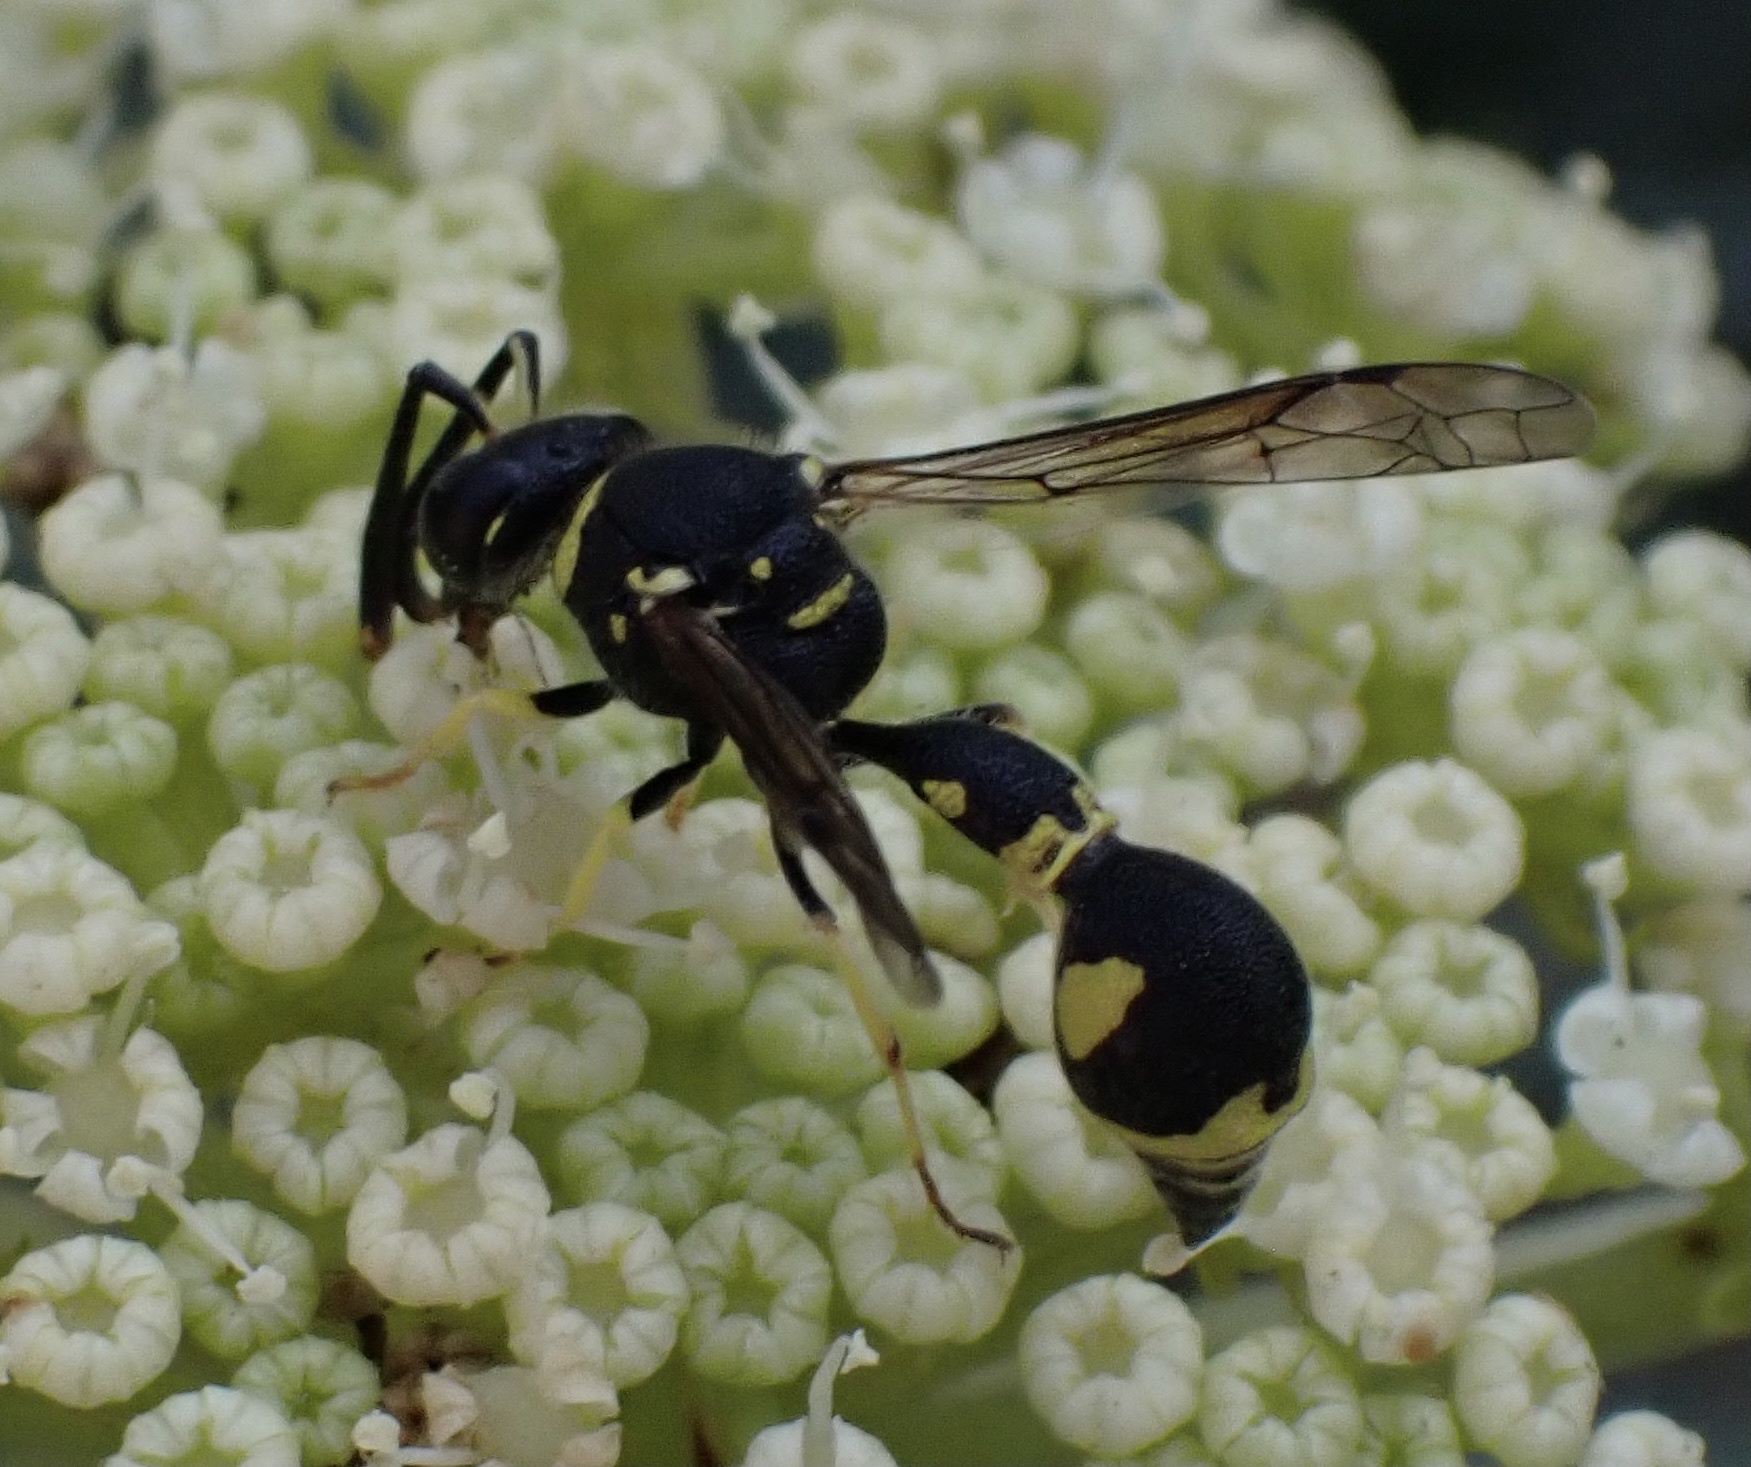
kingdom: Animalia
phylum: Arthropoda
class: Insecta
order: Hymenoptera
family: Vespidae
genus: Eumenes
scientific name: Eumenes mediterraneus
